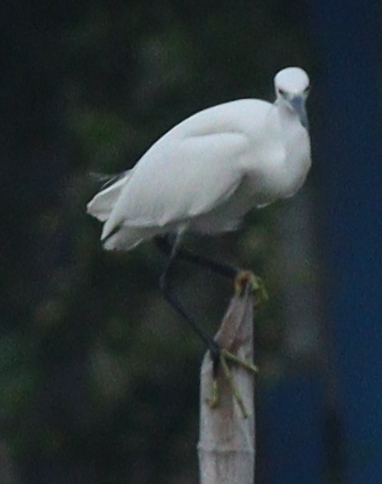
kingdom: Animalia
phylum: Chordata
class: Aves
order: Pelecaniformes
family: Ardeidae
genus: Egretta
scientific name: Egretta garzetta
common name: Little egret
